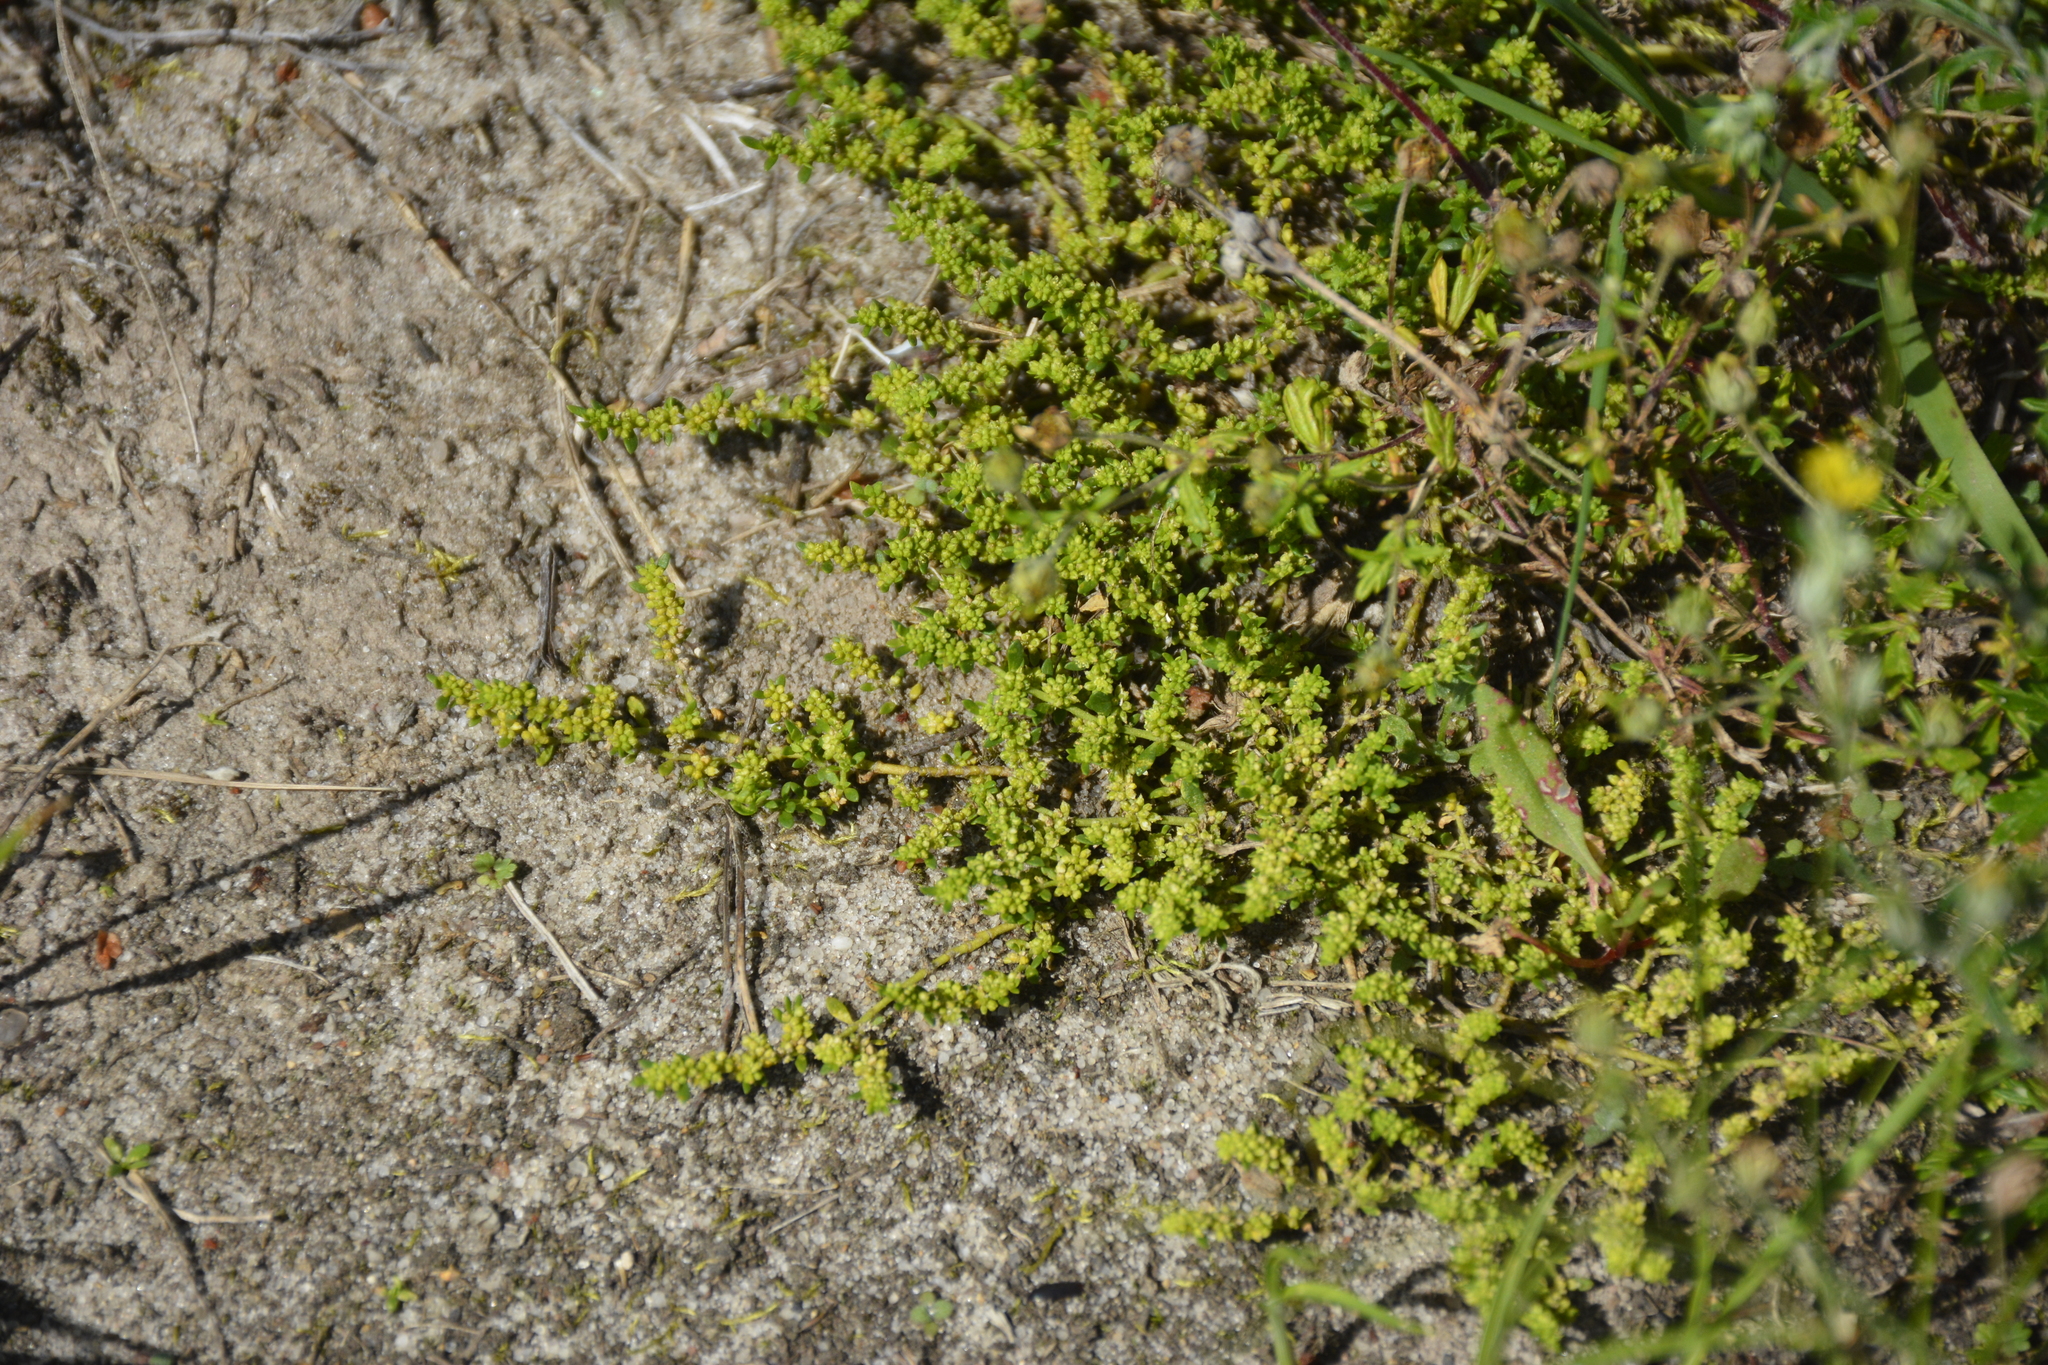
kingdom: Plantae
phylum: Tracheophyta
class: Magnoliopsida
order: Caryophyllales
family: Caryophyllaceae
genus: Herniaria
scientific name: Herniaria glabra
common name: Smooth rupturewort
